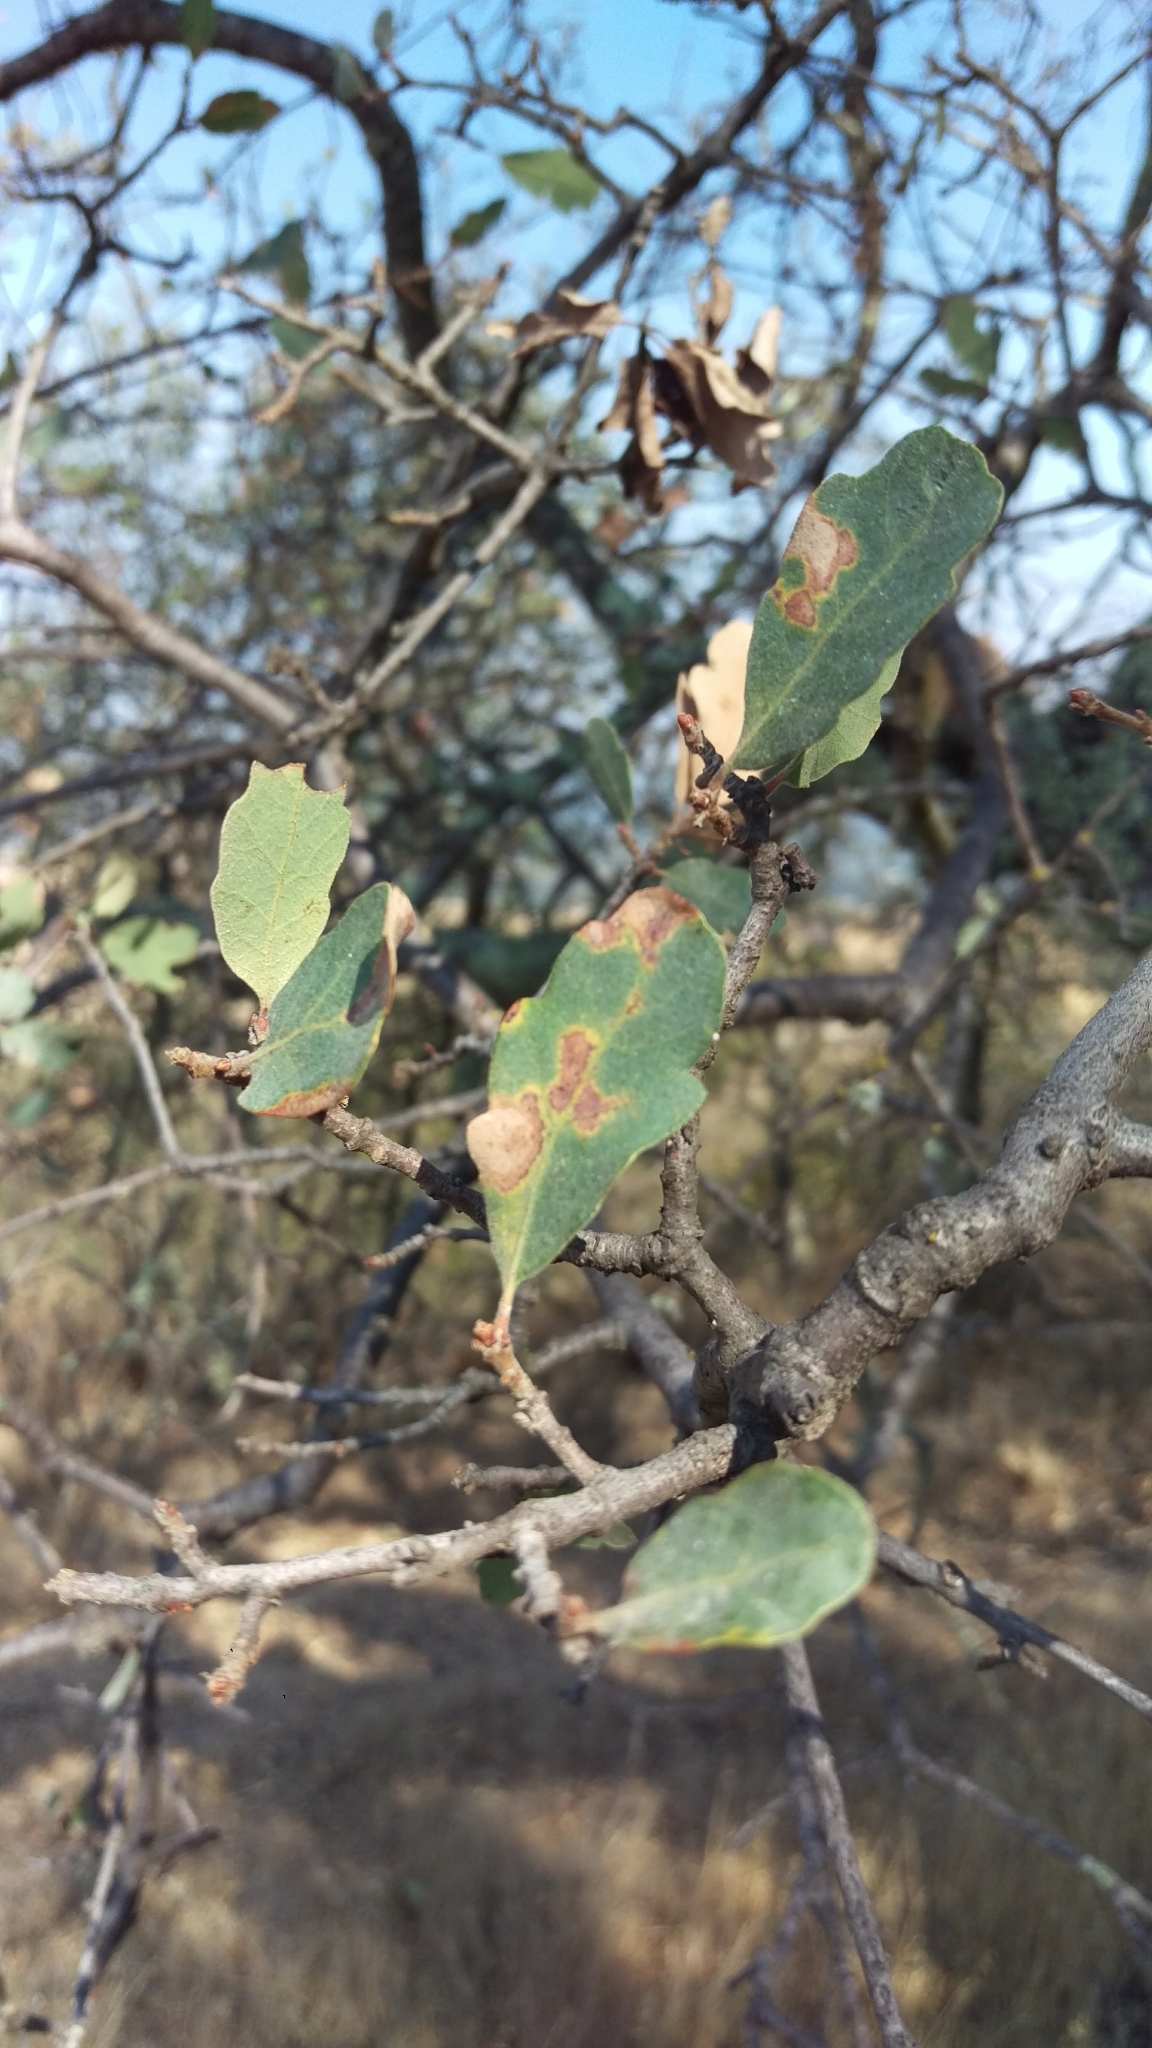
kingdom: Plantae
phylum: Tracheophyta
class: Magnoliopsida
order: Fagales
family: Fagaceae
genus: Quercus
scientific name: Quercus douglasii
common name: Blue oak
